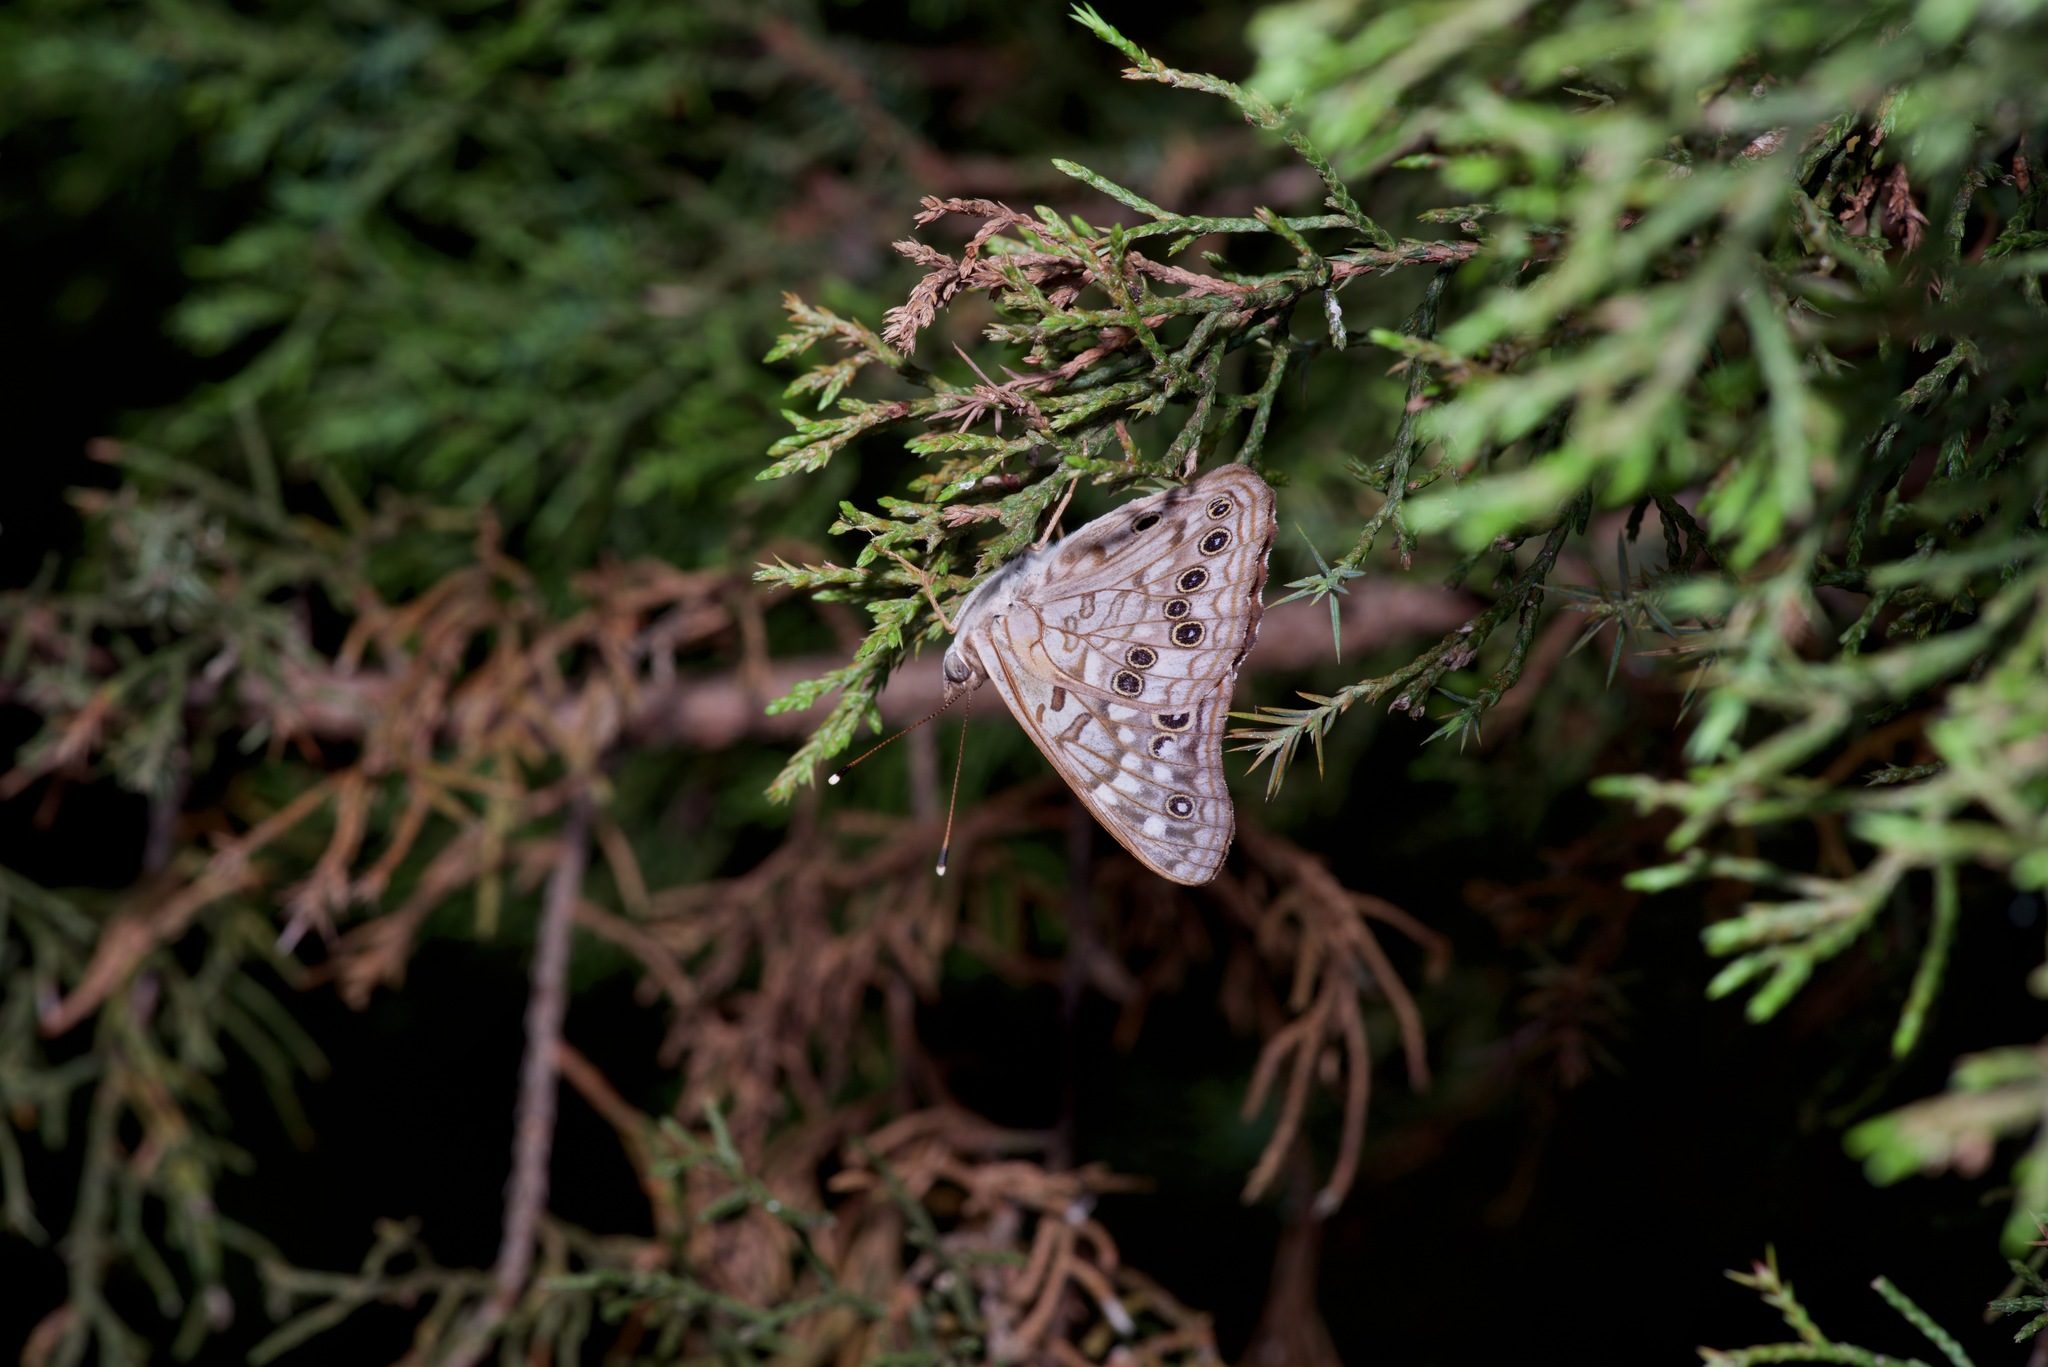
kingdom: Animalia
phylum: Arthropoda
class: Insecta
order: Lepidoptera
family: Nymphalidae
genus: Asterocampa
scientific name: Asterocampa celtis
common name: Hackberry emperor
